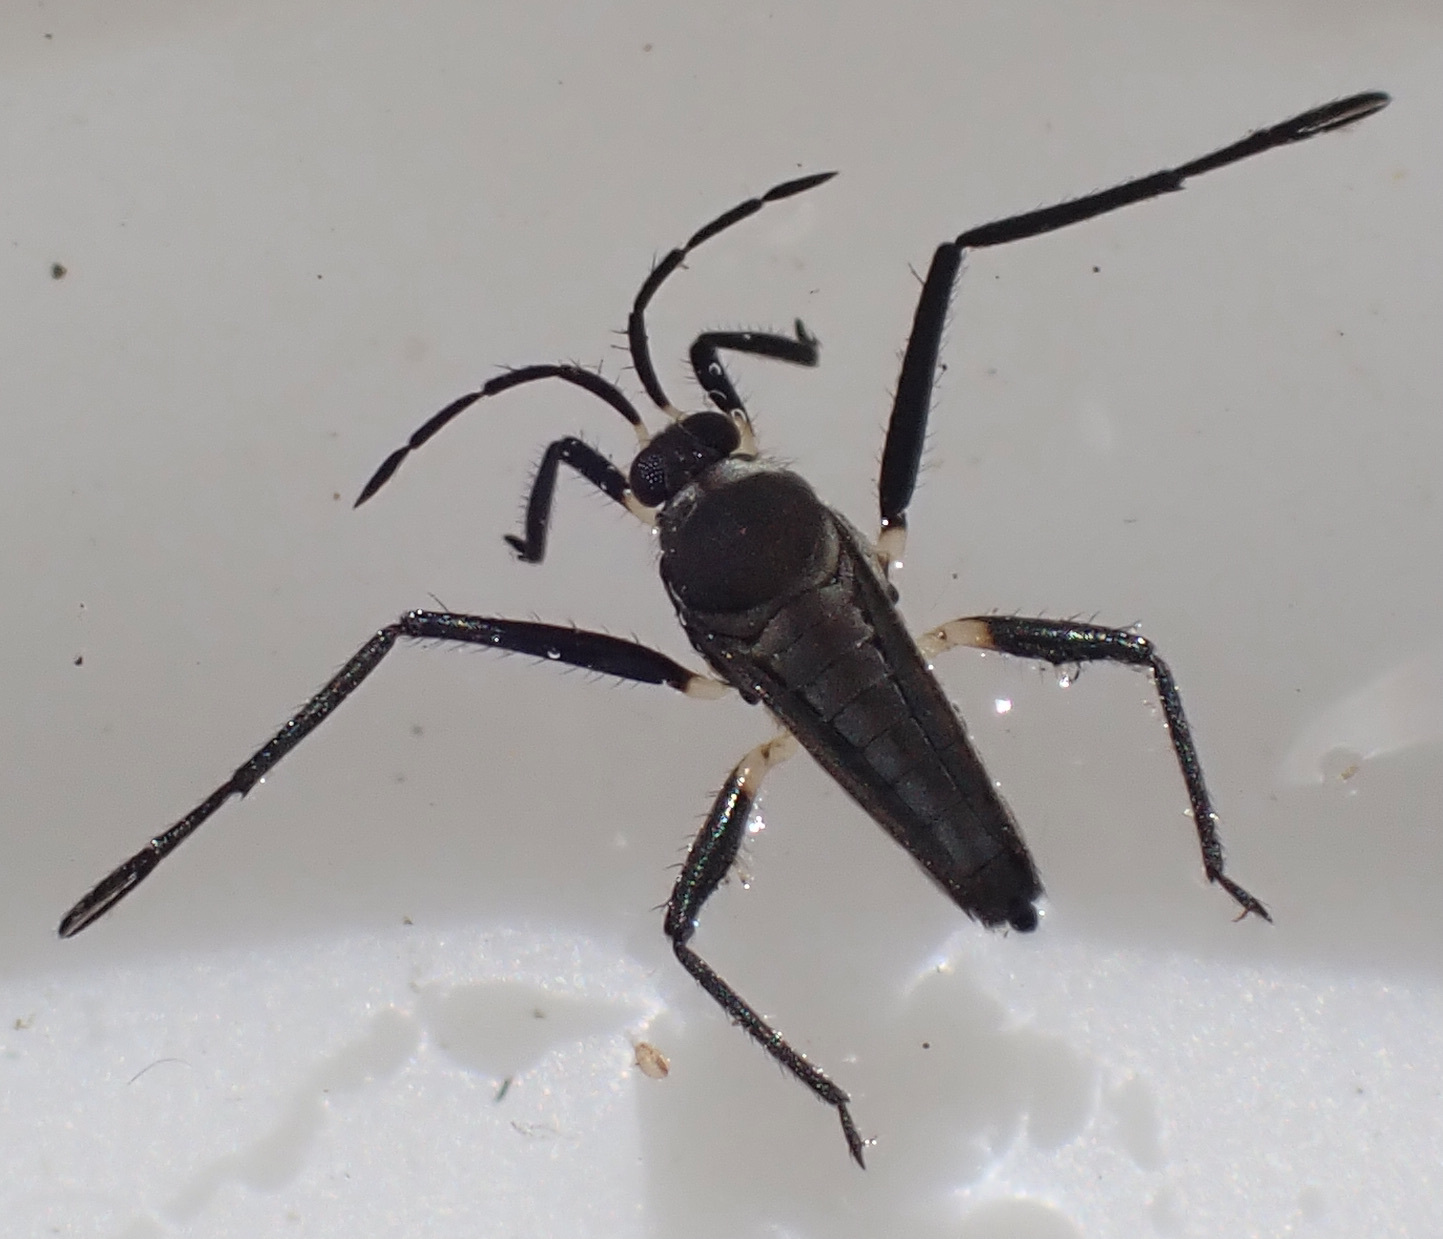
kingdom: Animalia
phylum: Arthropoda
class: Insecta
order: Hemiptera
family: Veliidae
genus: Rhagovelia
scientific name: Rhagovelia
